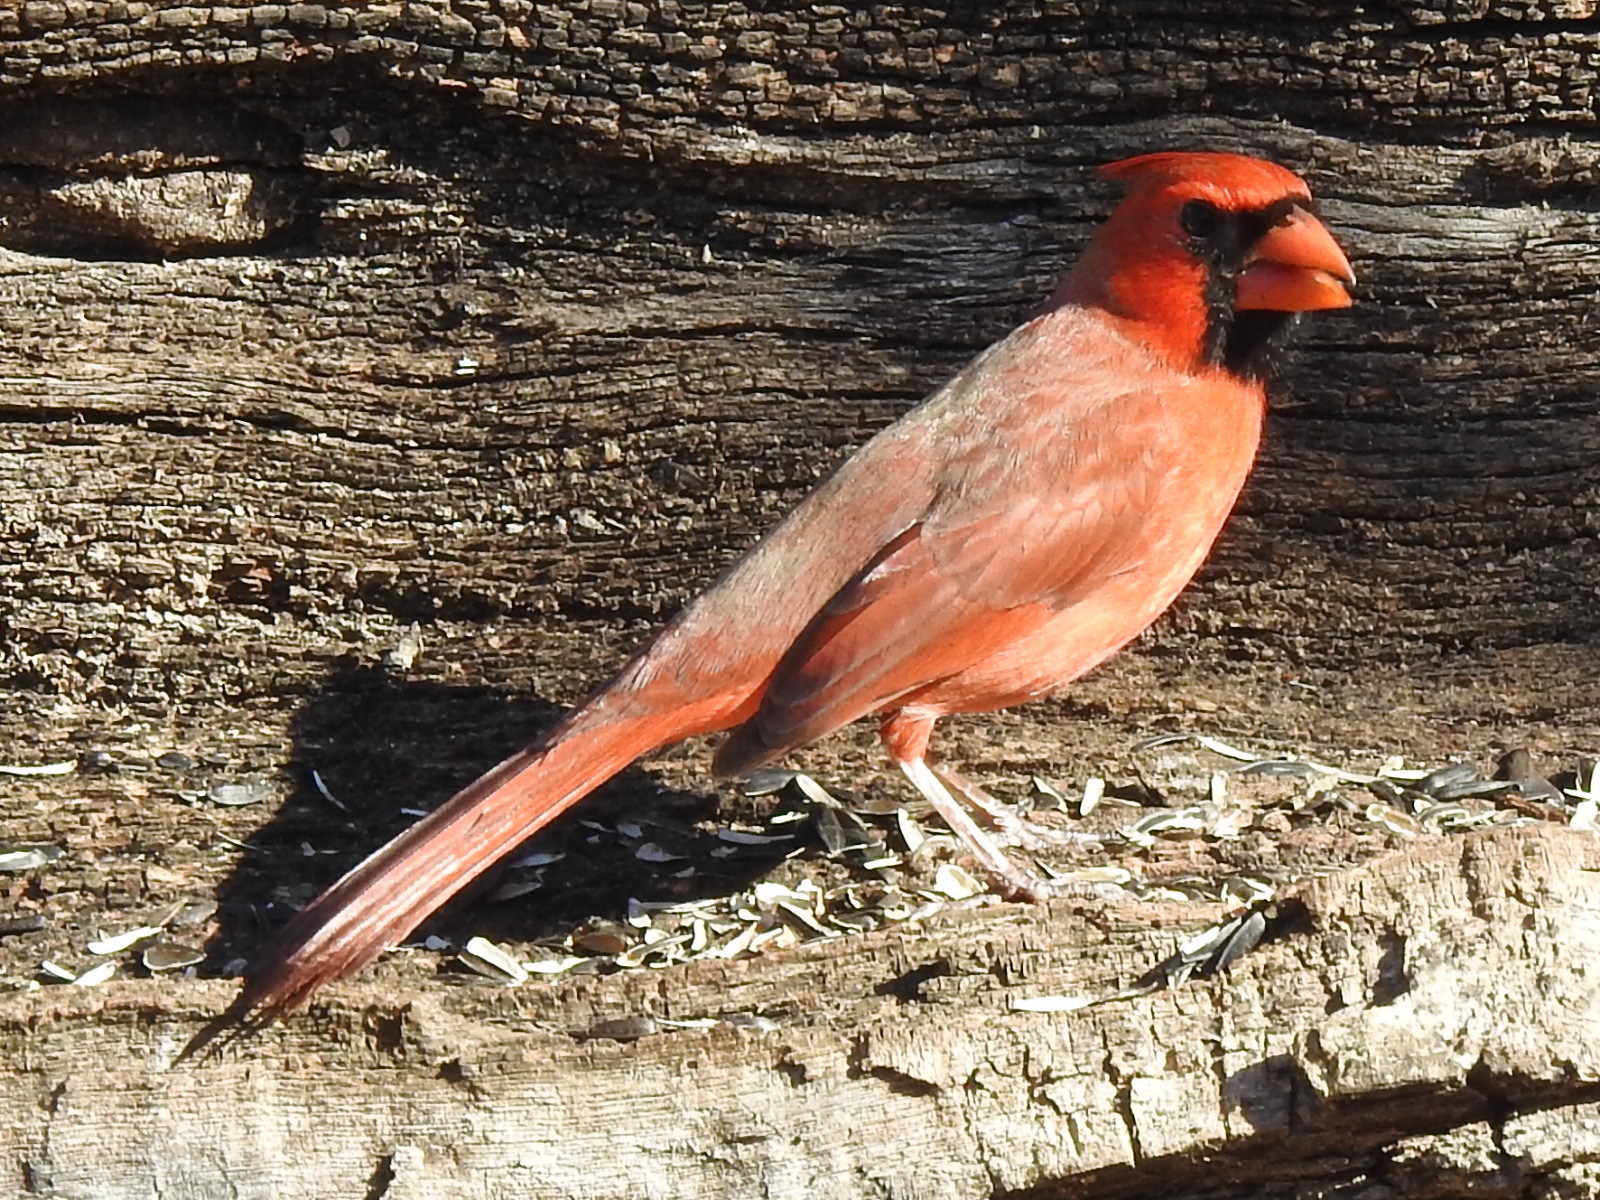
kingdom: Animalia
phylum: Chordata
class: Aves
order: Passeriformes
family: Cardinalidae
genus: Cardinalis
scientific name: Cardinalis cardinalis
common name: Northern cardinal
